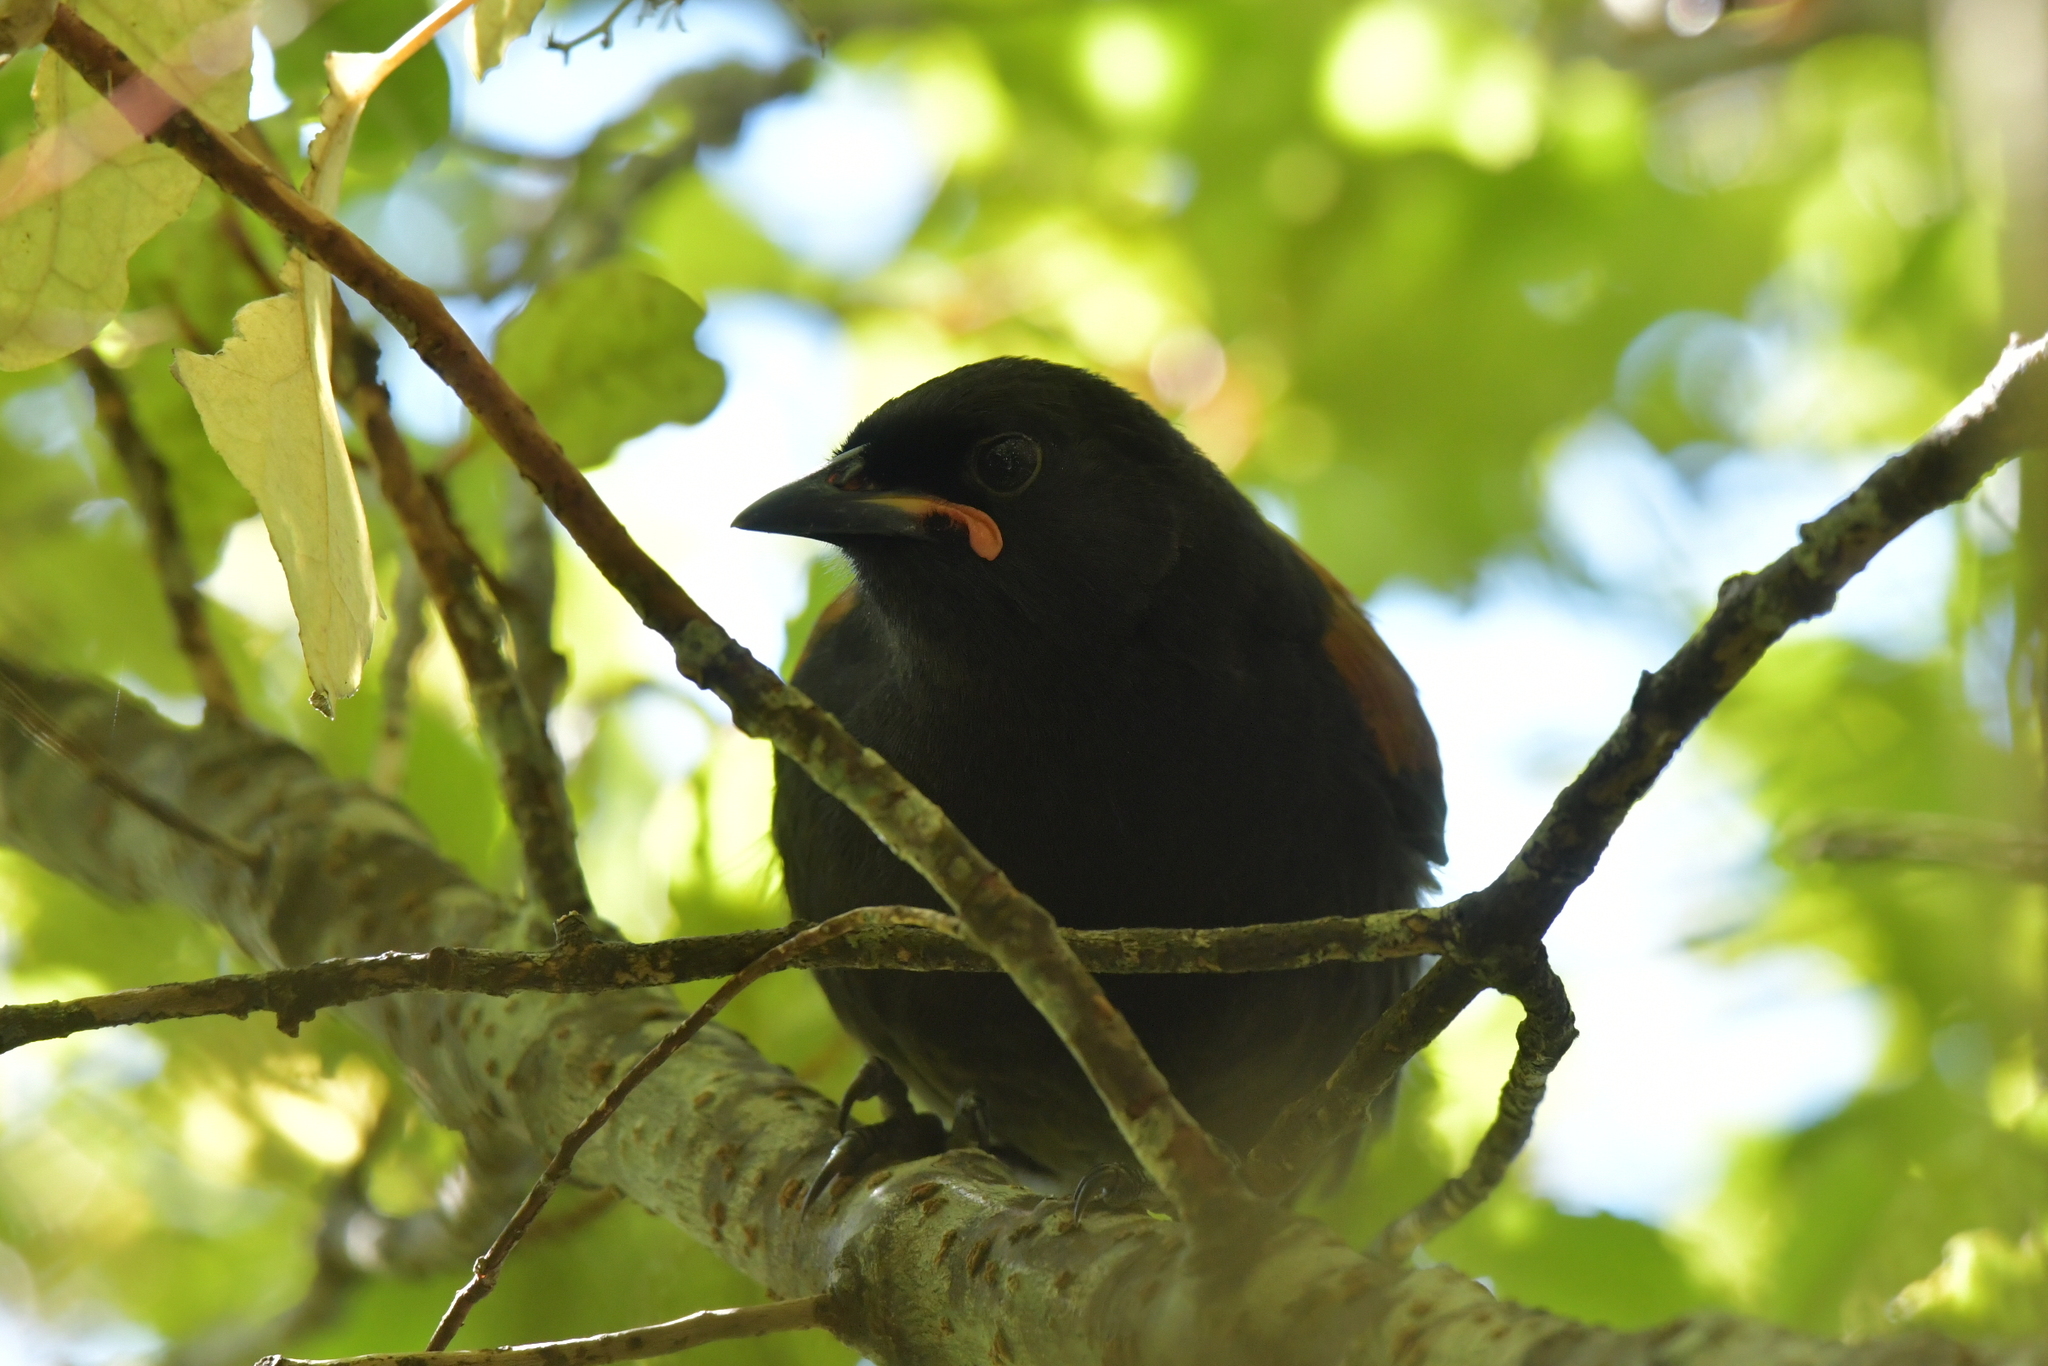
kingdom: Animalia
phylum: Chordata
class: Aves
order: Passeriformes
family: Callaeatidae
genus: Philesturnus
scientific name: Philesturnus carunculatus
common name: South island saddleback
